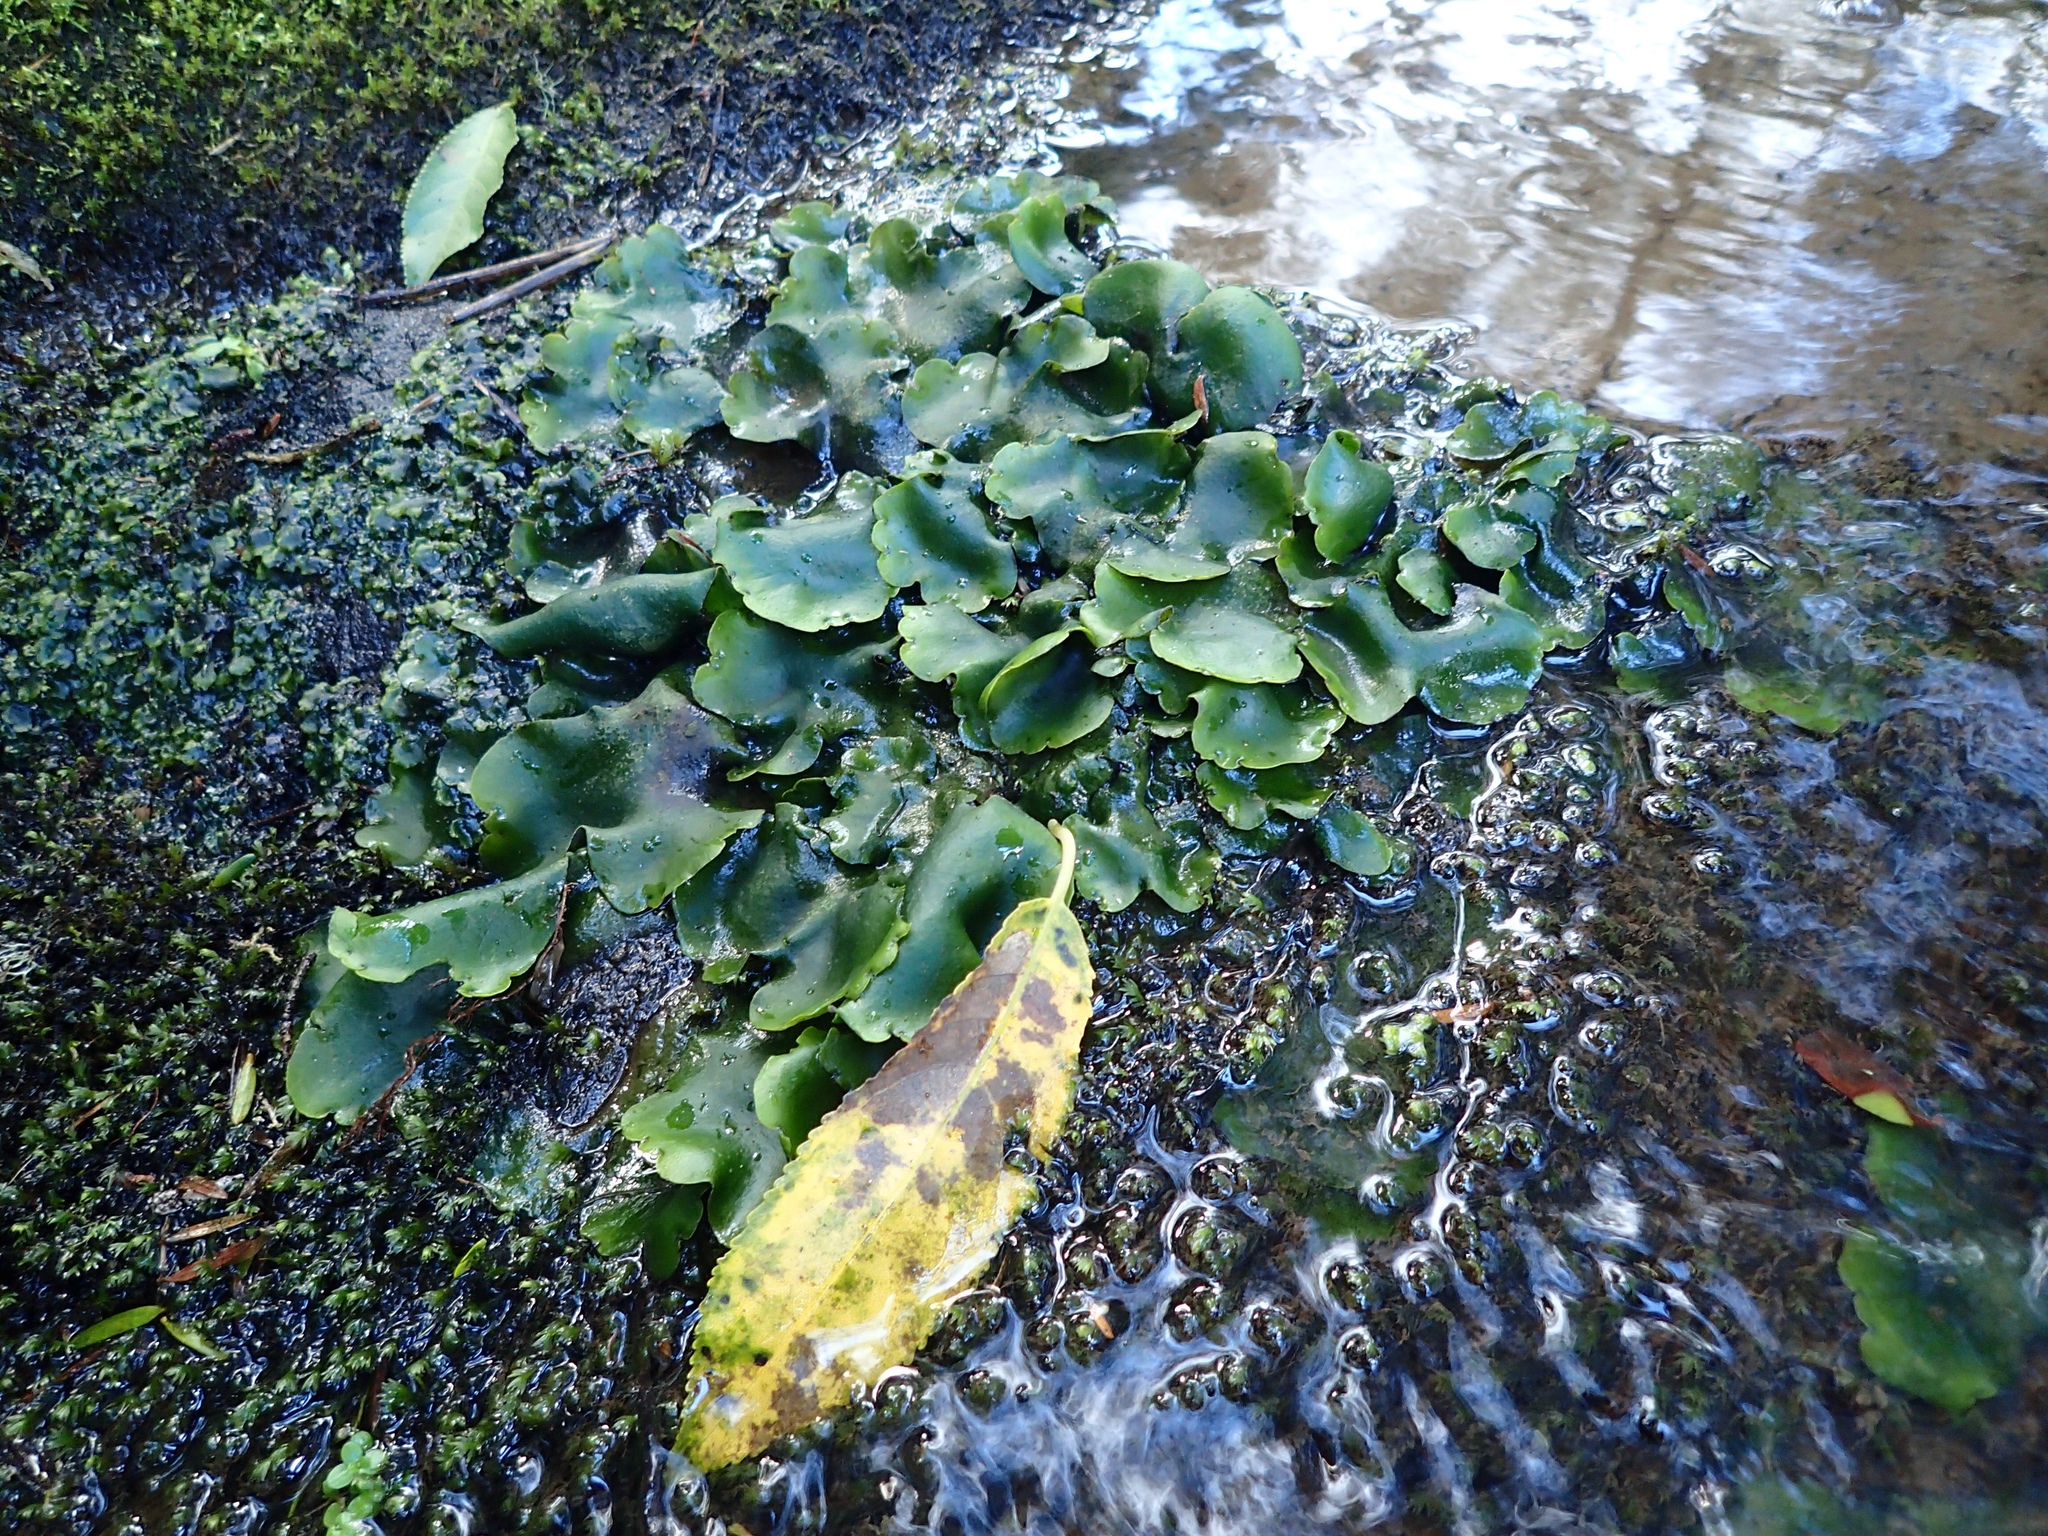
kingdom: Plantae
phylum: Marchantiophyta
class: Marchantiopsida
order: Marchantiales
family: Monocleaceae
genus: Monoclea
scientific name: Monoclea forsteri
